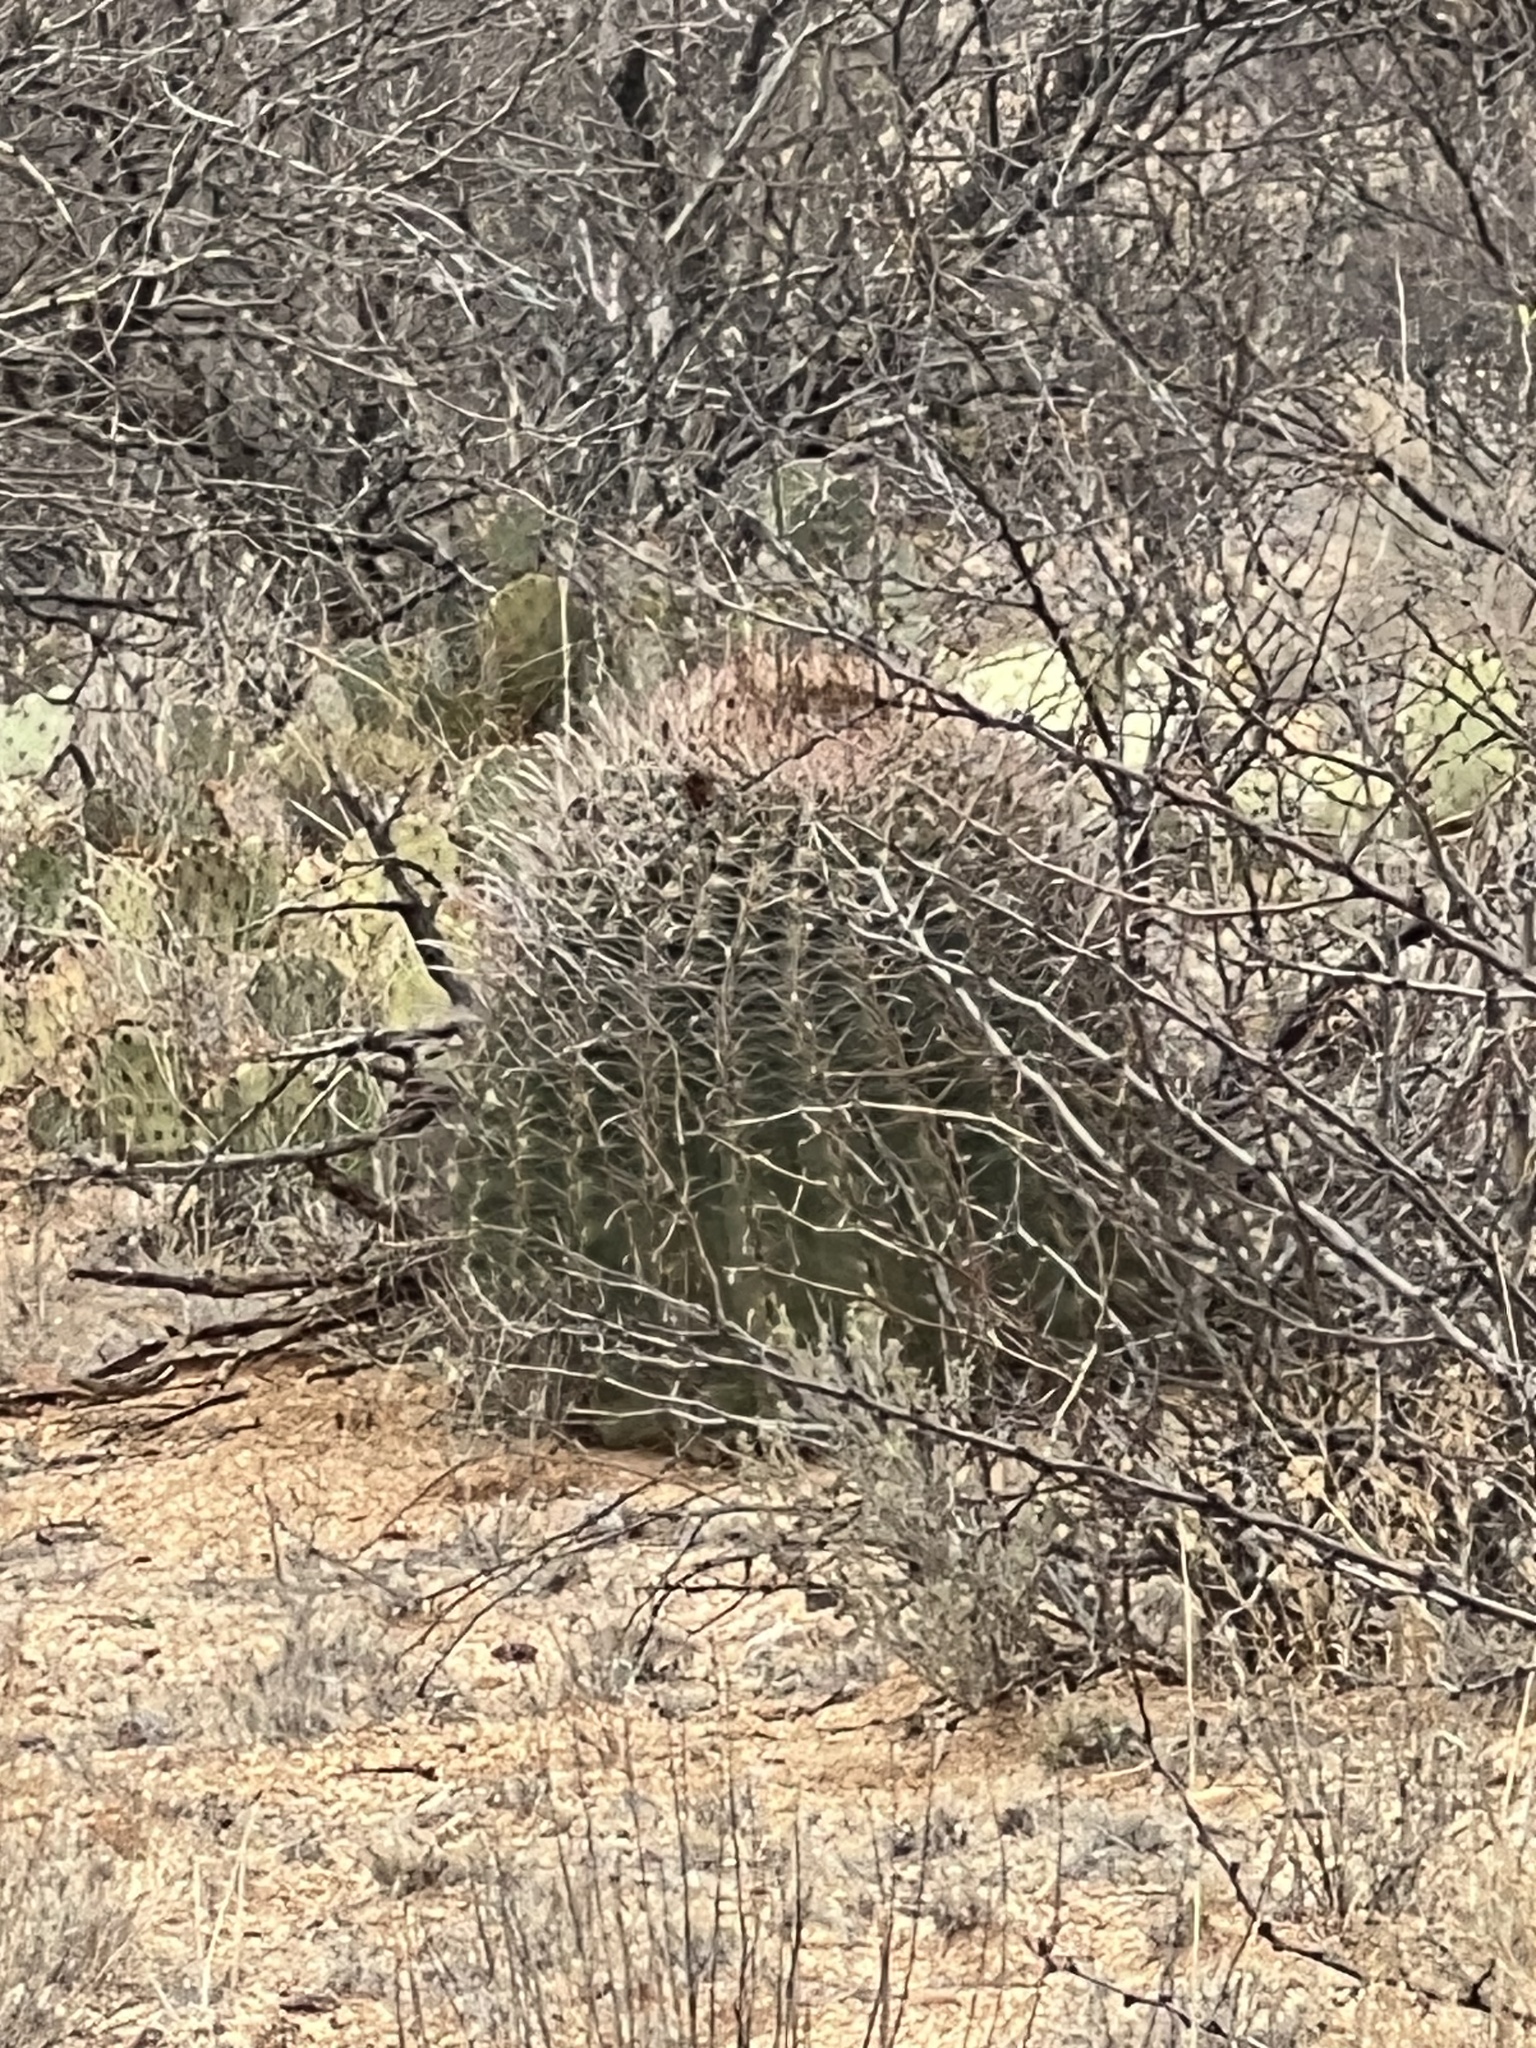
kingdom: Plantae
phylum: Tracheophyta
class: Magnoliopsida
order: Caryophyllales
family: Cactaceae
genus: Ferocactus
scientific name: Ferocactus wislizeni
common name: Candy barrel cactus
